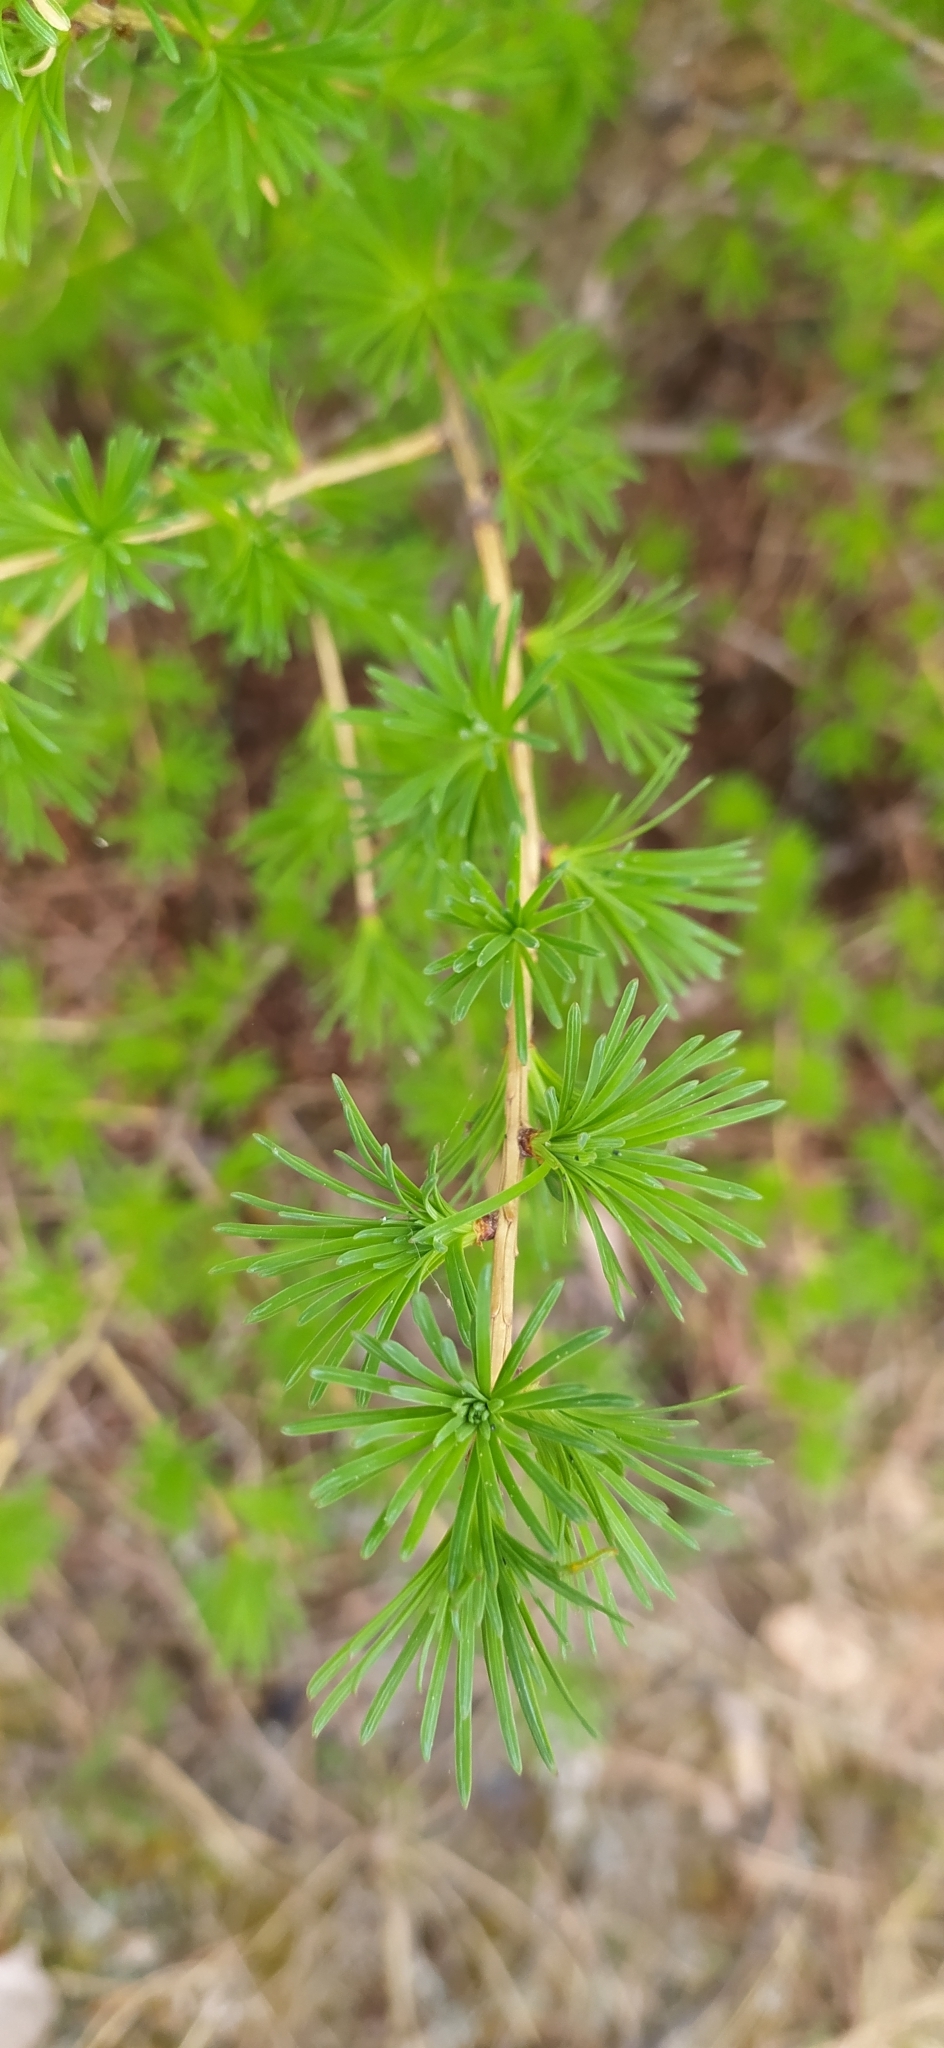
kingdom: Plantae
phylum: Tracheophyta
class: Pinopsida
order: Pinales
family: Pinaceae
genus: Larix
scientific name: Larix sibirica
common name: Siberian larch
